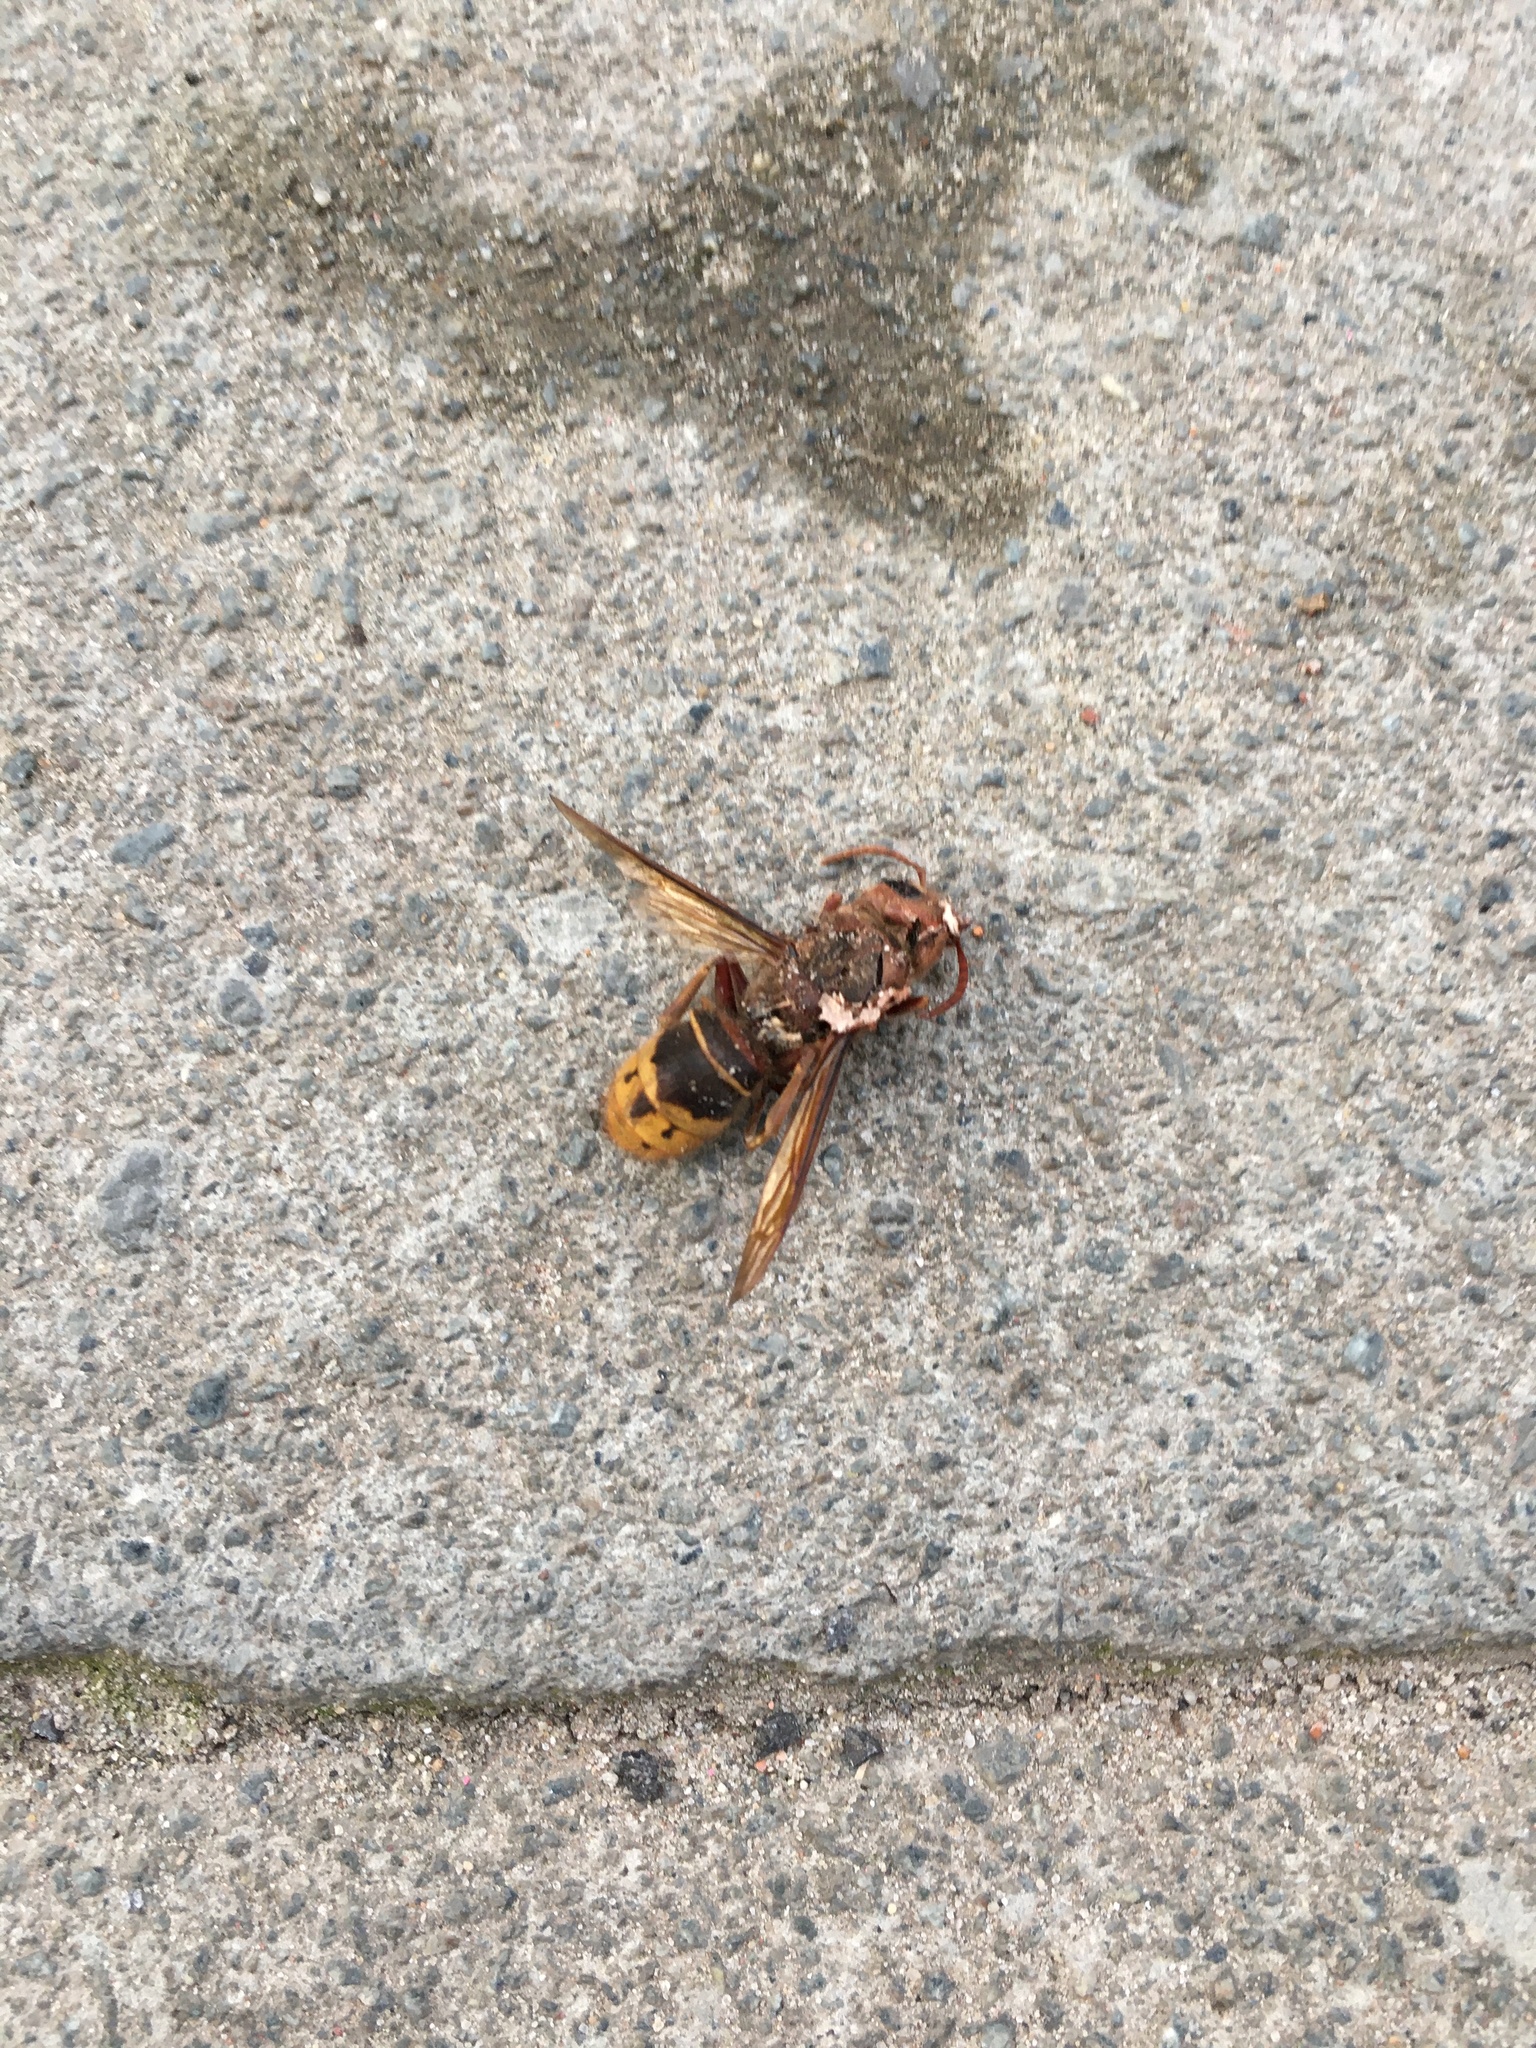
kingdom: Animalia
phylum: Arthropoda
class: Insecta
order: Hymenoptera
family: Vespidae
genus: Vespa
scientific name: Vespa crabro
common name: Hornet
